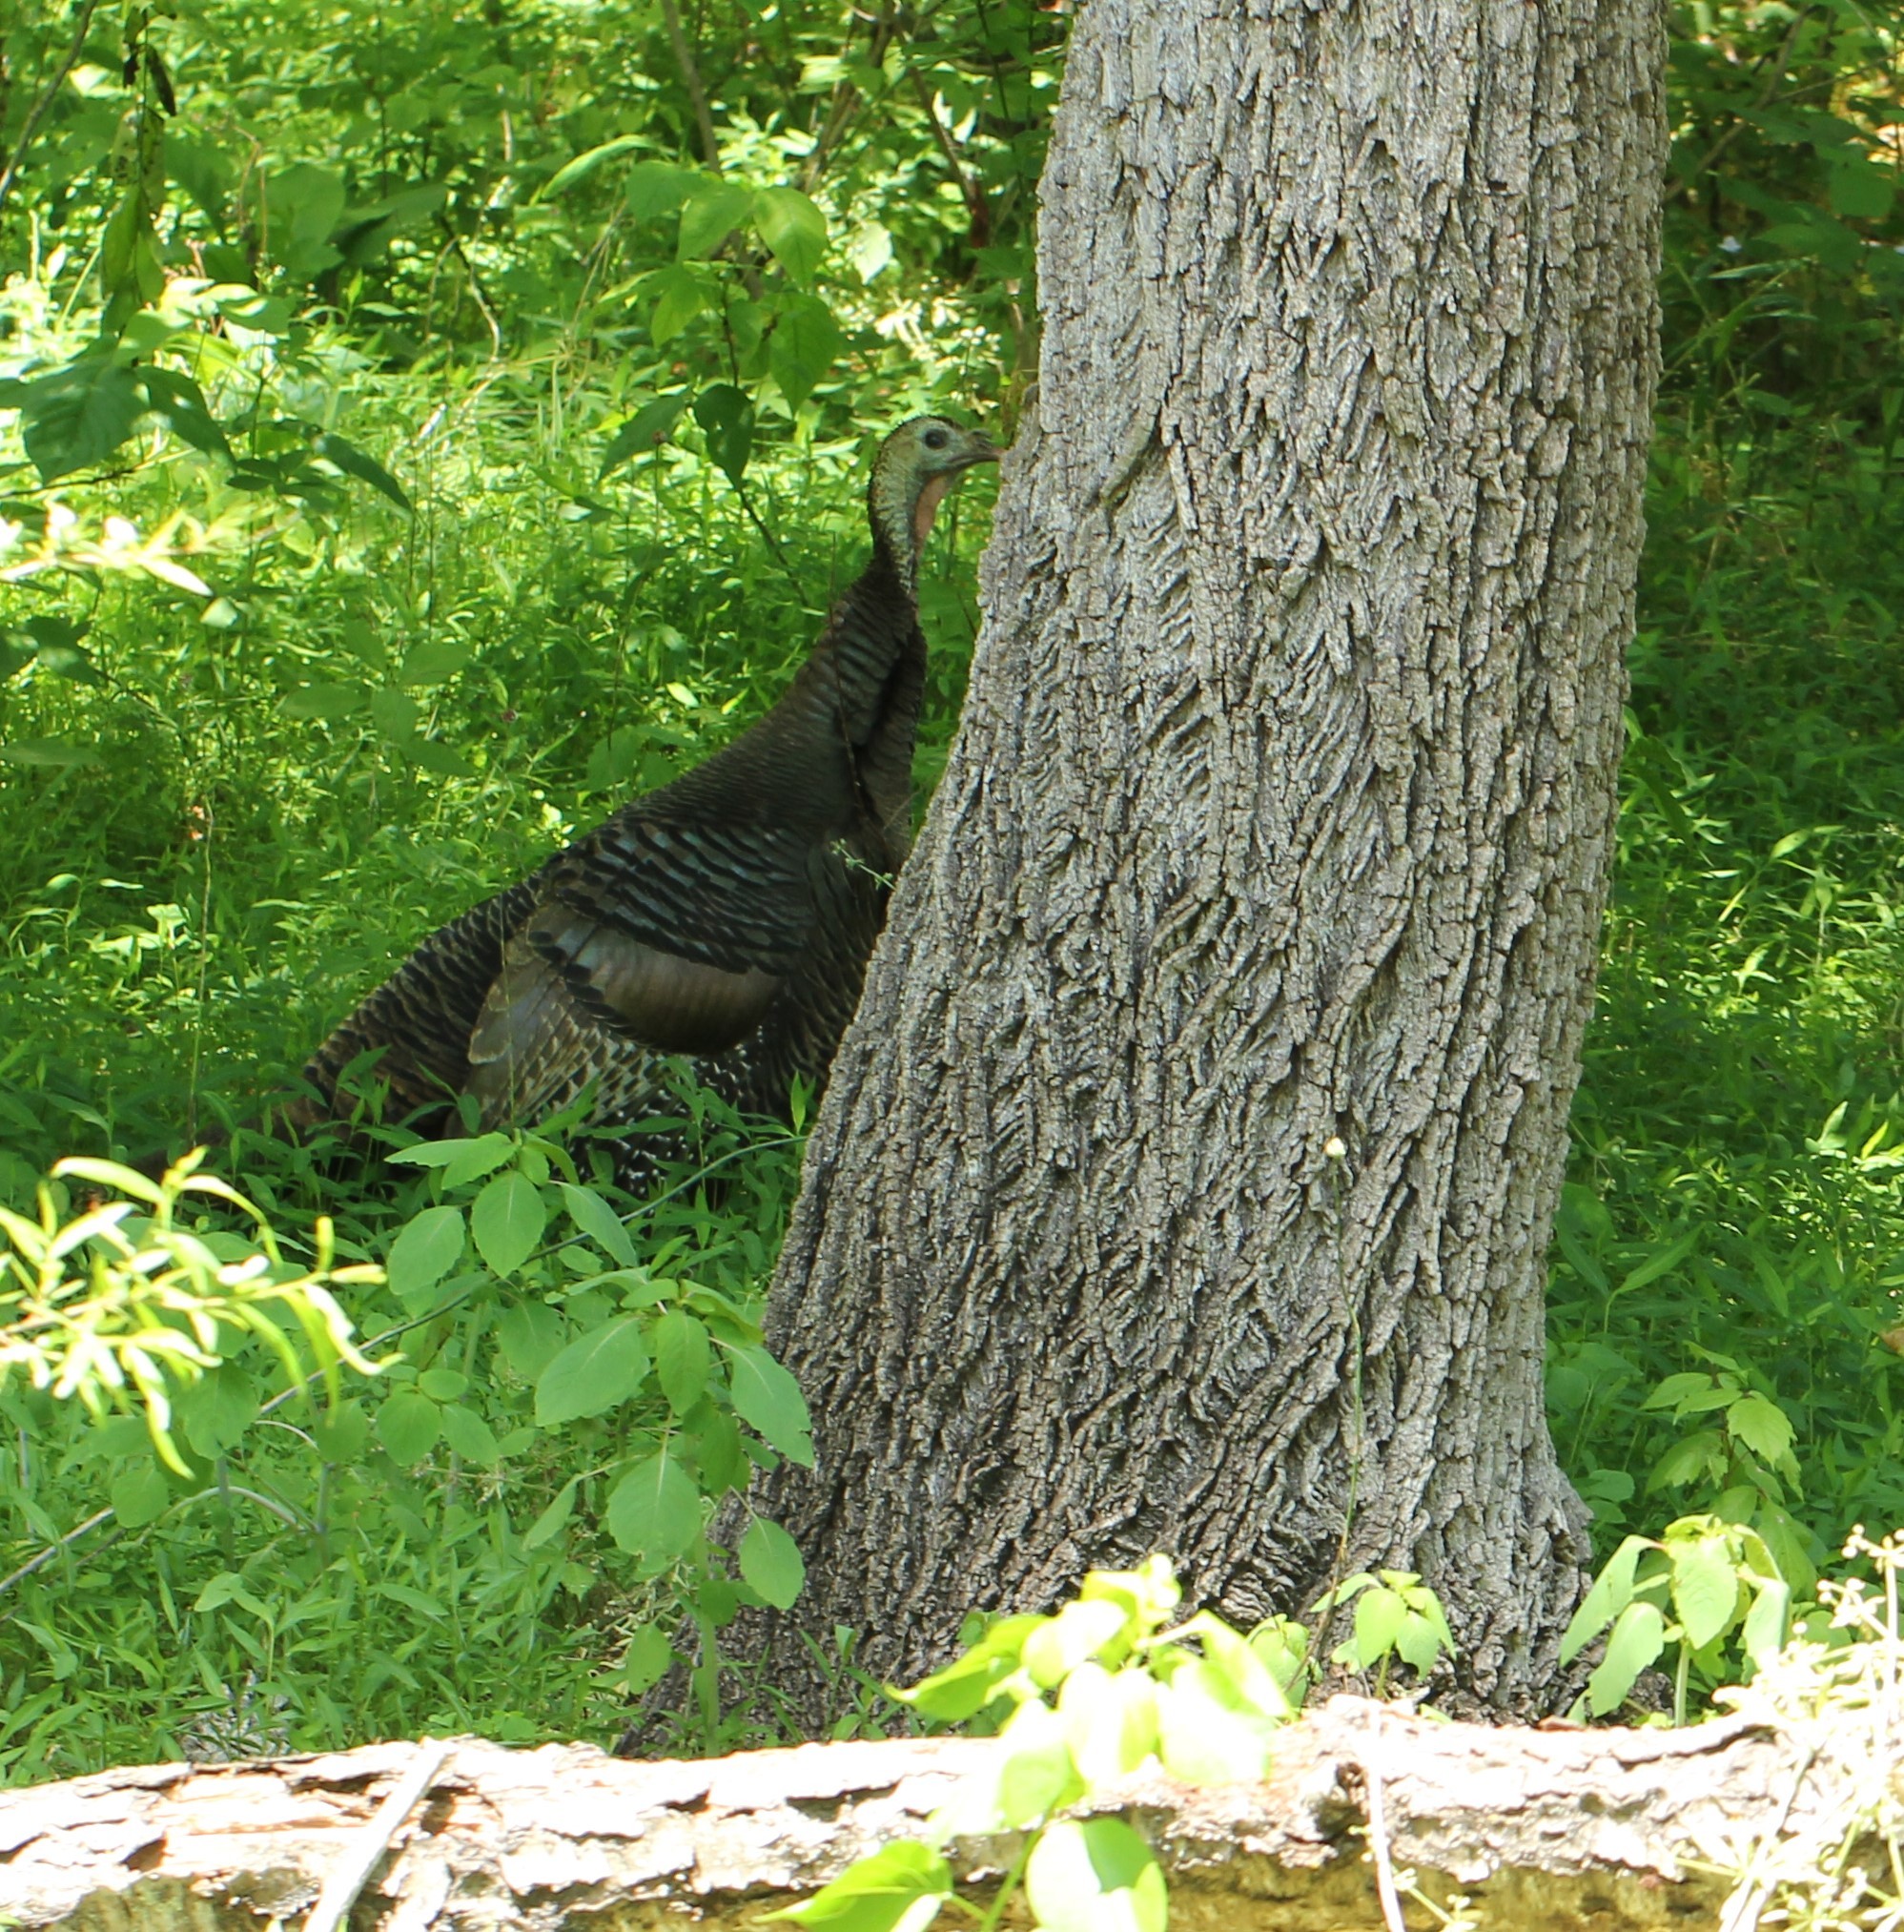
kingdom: Animalia
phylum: Chordata
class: Aves
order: Galliformes
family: Phasianidae
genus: Meleagris
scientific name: Meleagris gallopavo
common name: Wild turkey
